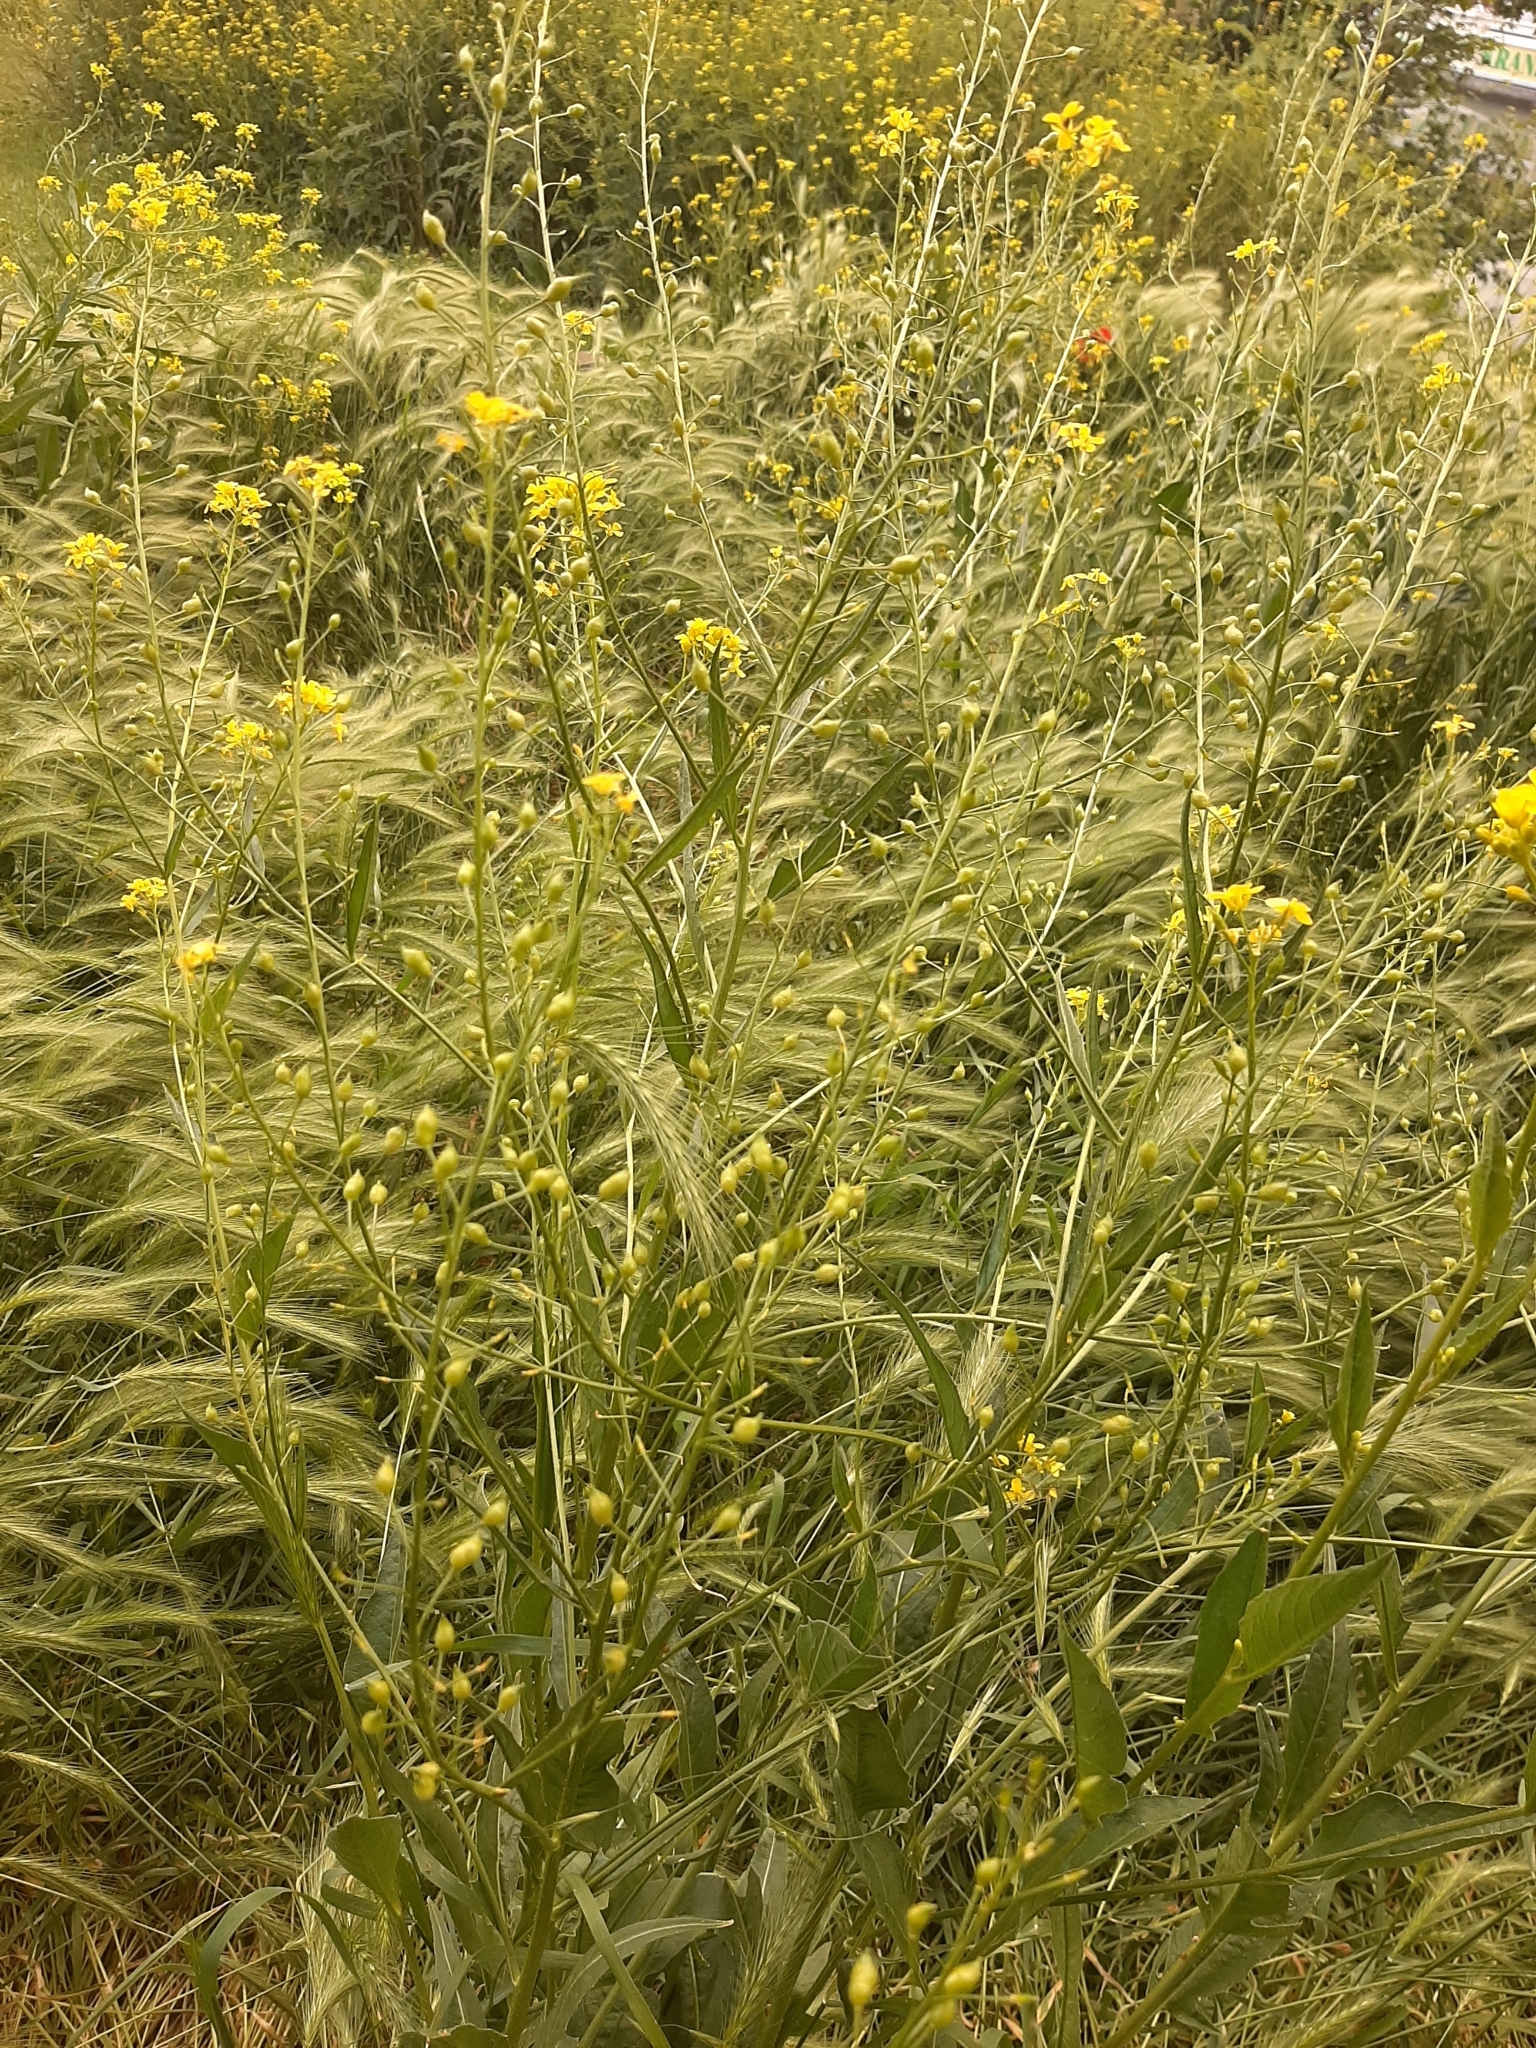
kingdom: Plantae
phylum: Tracheophyta
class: Magnoliopsida
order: Brassicales
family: Brassicaceae
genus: Bunias
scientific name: Bunias orientalis
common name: Warty-cabbage
